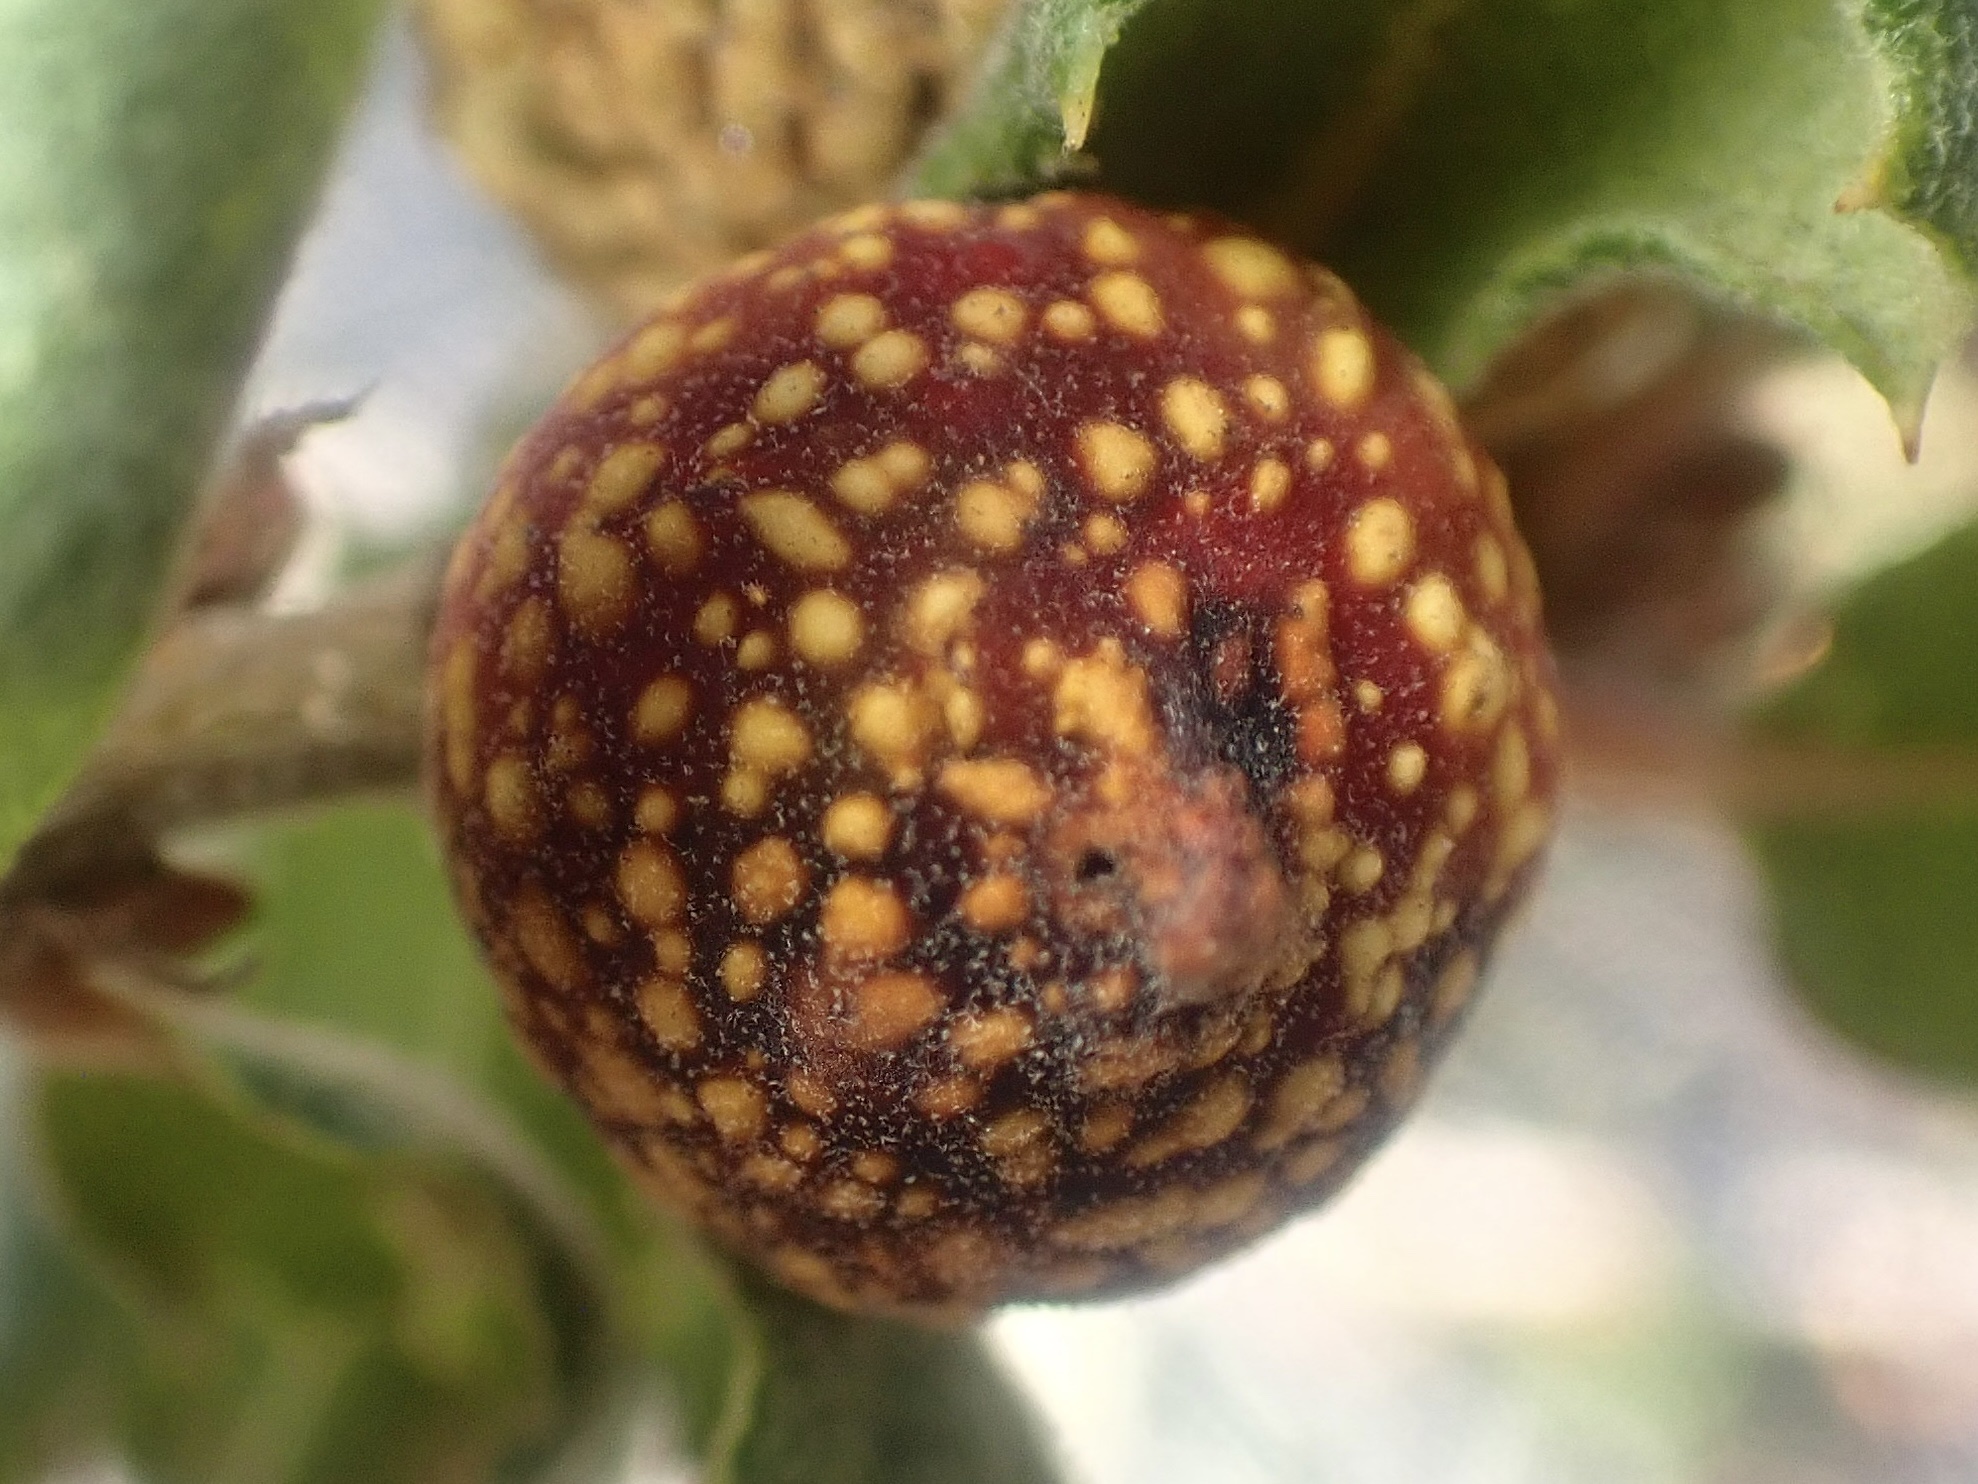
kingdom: Animalia
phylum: Arthropoda
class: Insecta
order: Hymenoptera
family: Cynipidae
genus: Burnettweldia
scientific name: Burnettweldia
